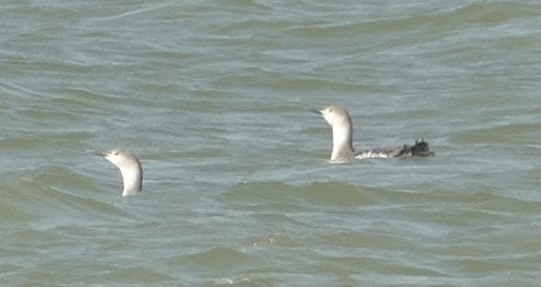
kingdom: Animalia
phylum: Chordata
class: Aves
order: Gaviiformes
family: Gaviidae
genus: Gavia
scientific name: Gavia stellata
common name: Red-throated loon
